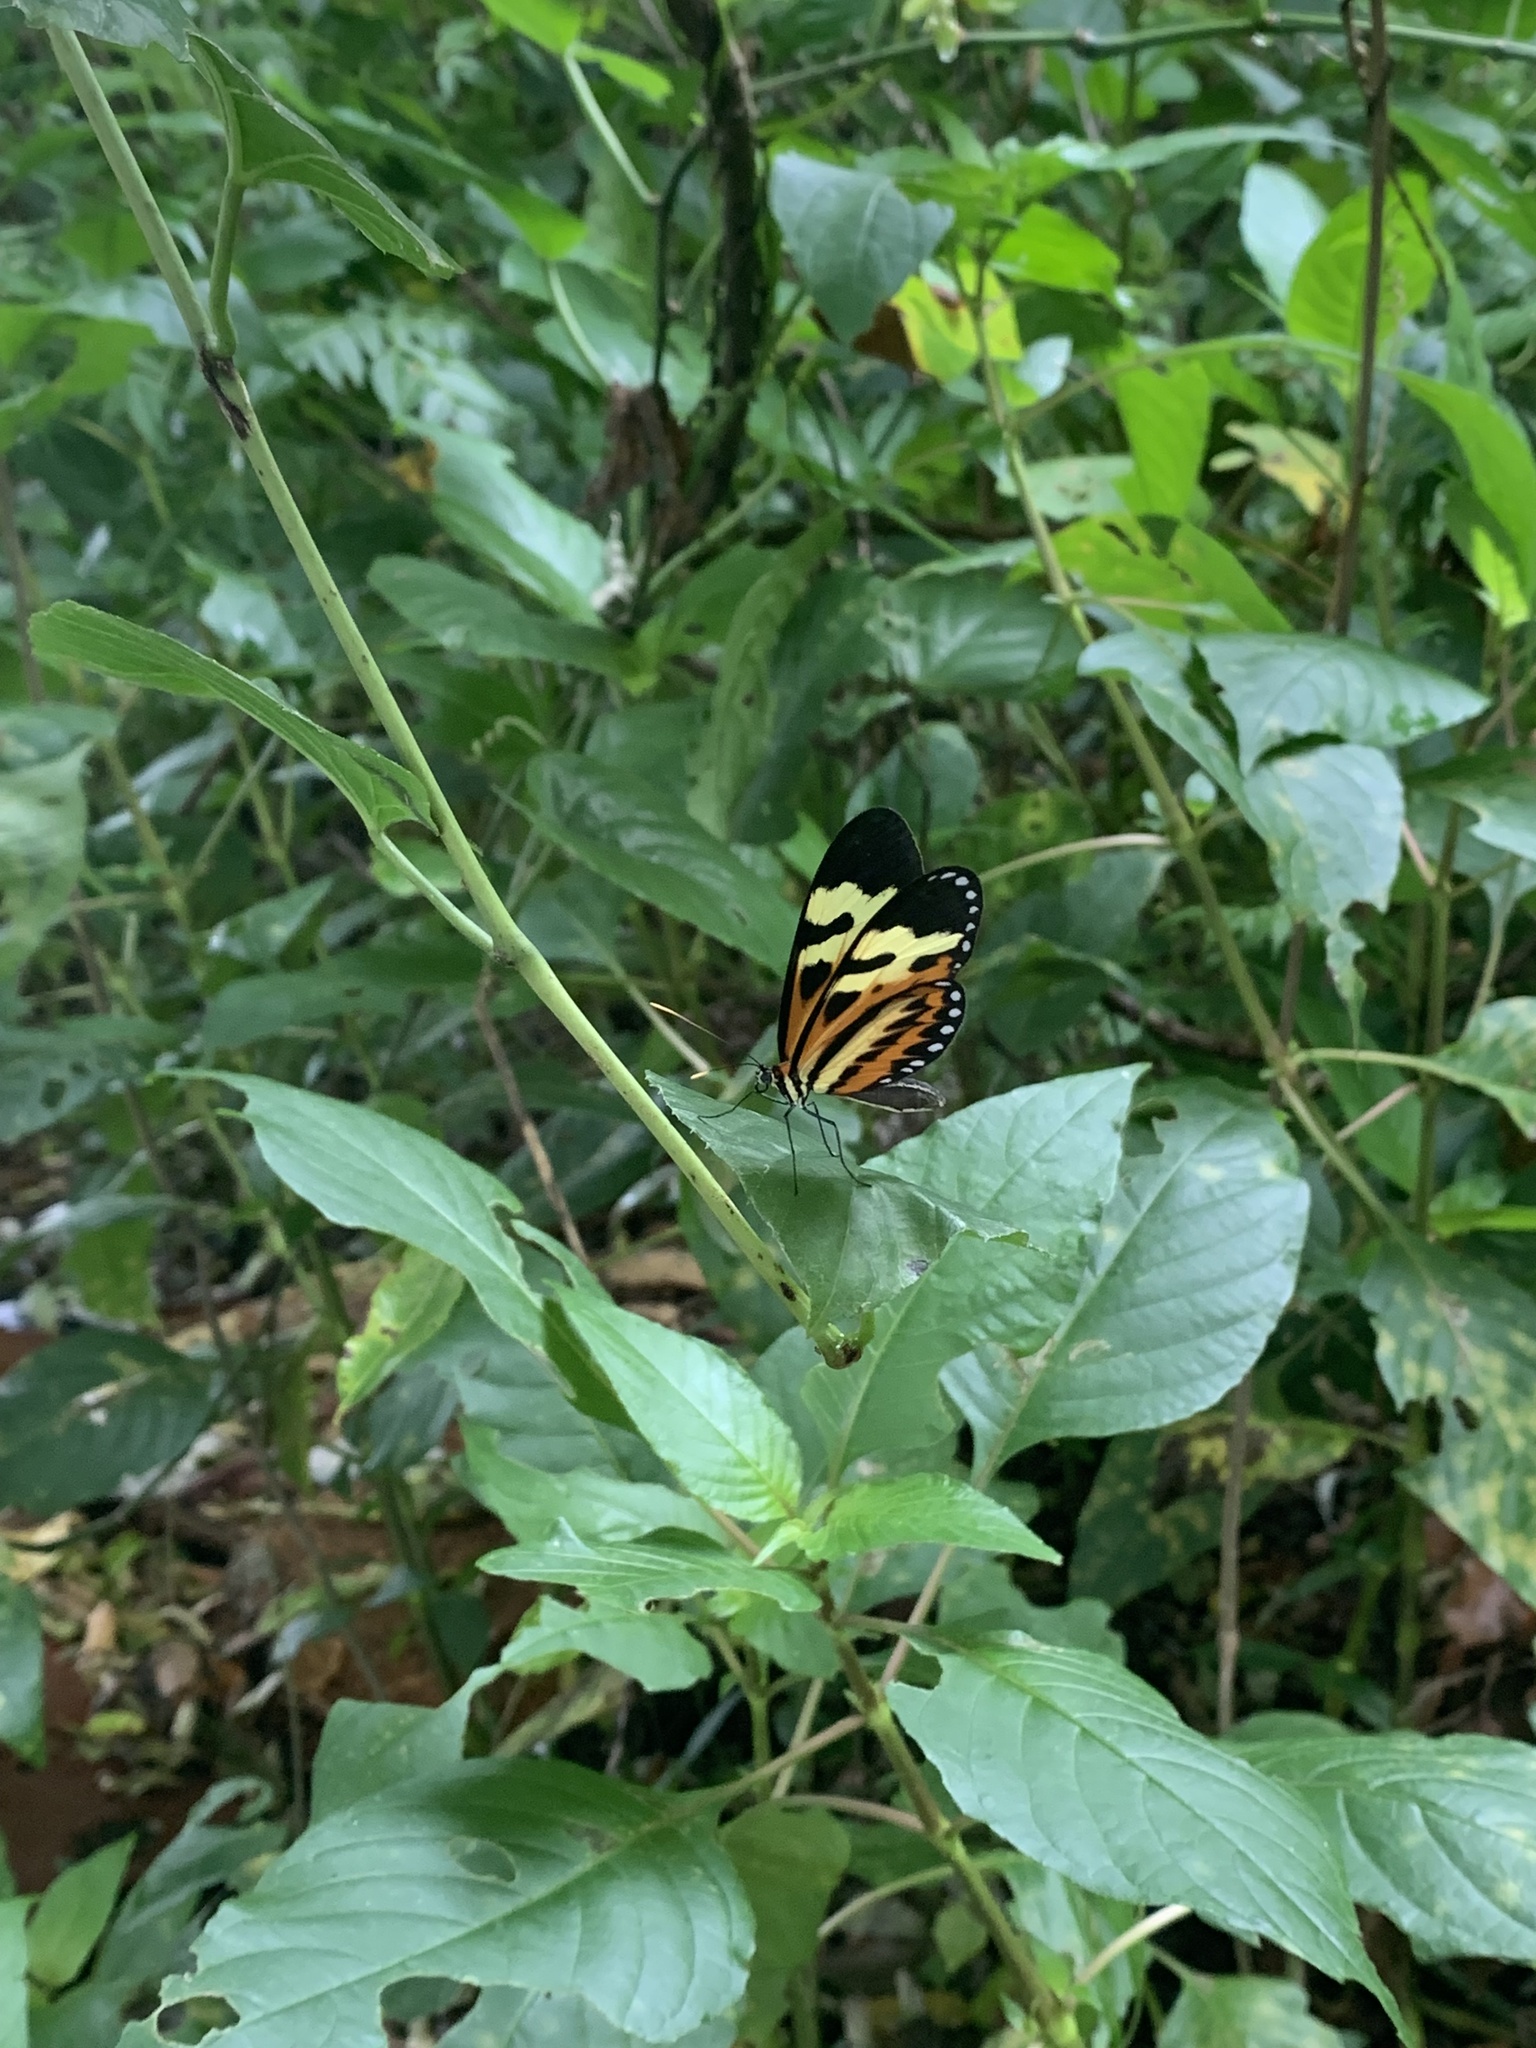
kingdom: Animalia
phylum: Arthropoda
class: Insecta
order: Lepidoptera
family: Nymphalidae
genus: Mechanitis
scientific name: Mechanitis polymnia
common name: Disturbed tigerwing
